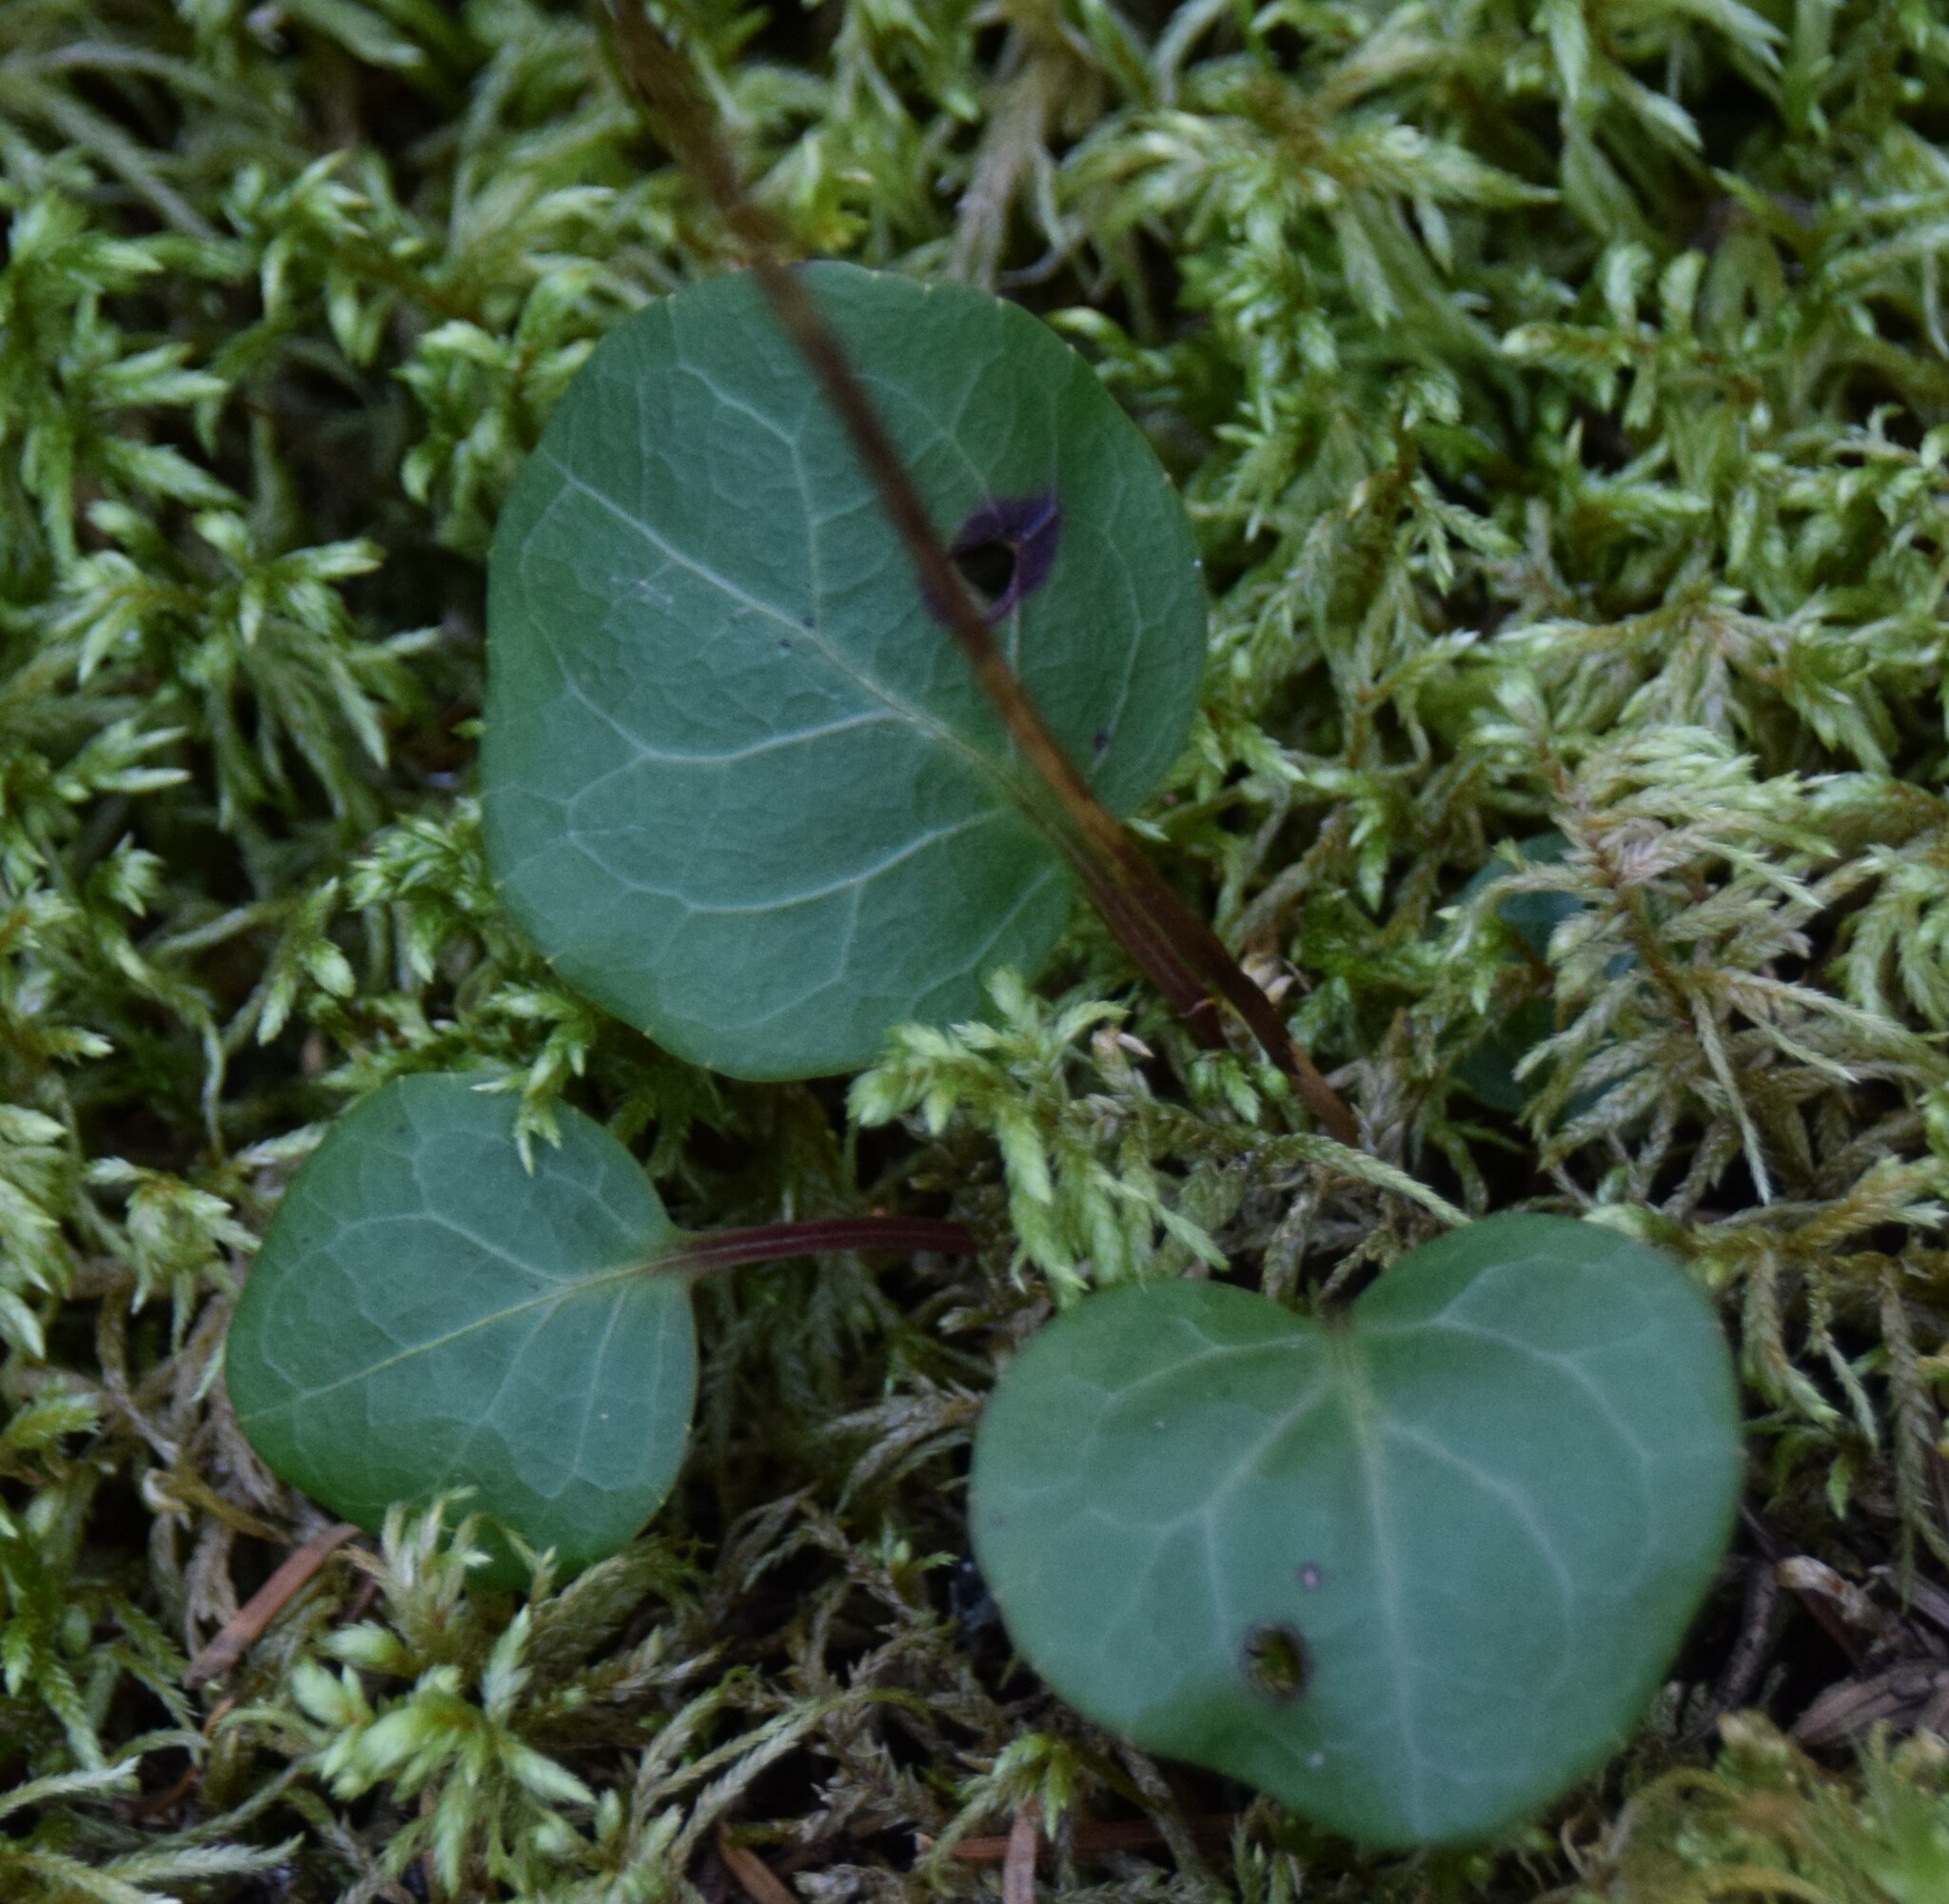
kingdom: Plantae
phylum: Tracheophyta
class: Magnoliopsida
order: Ericales
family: Ericaceae
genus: Pyrola
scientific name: Pyrola chlorantha
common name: Green wintergreen
